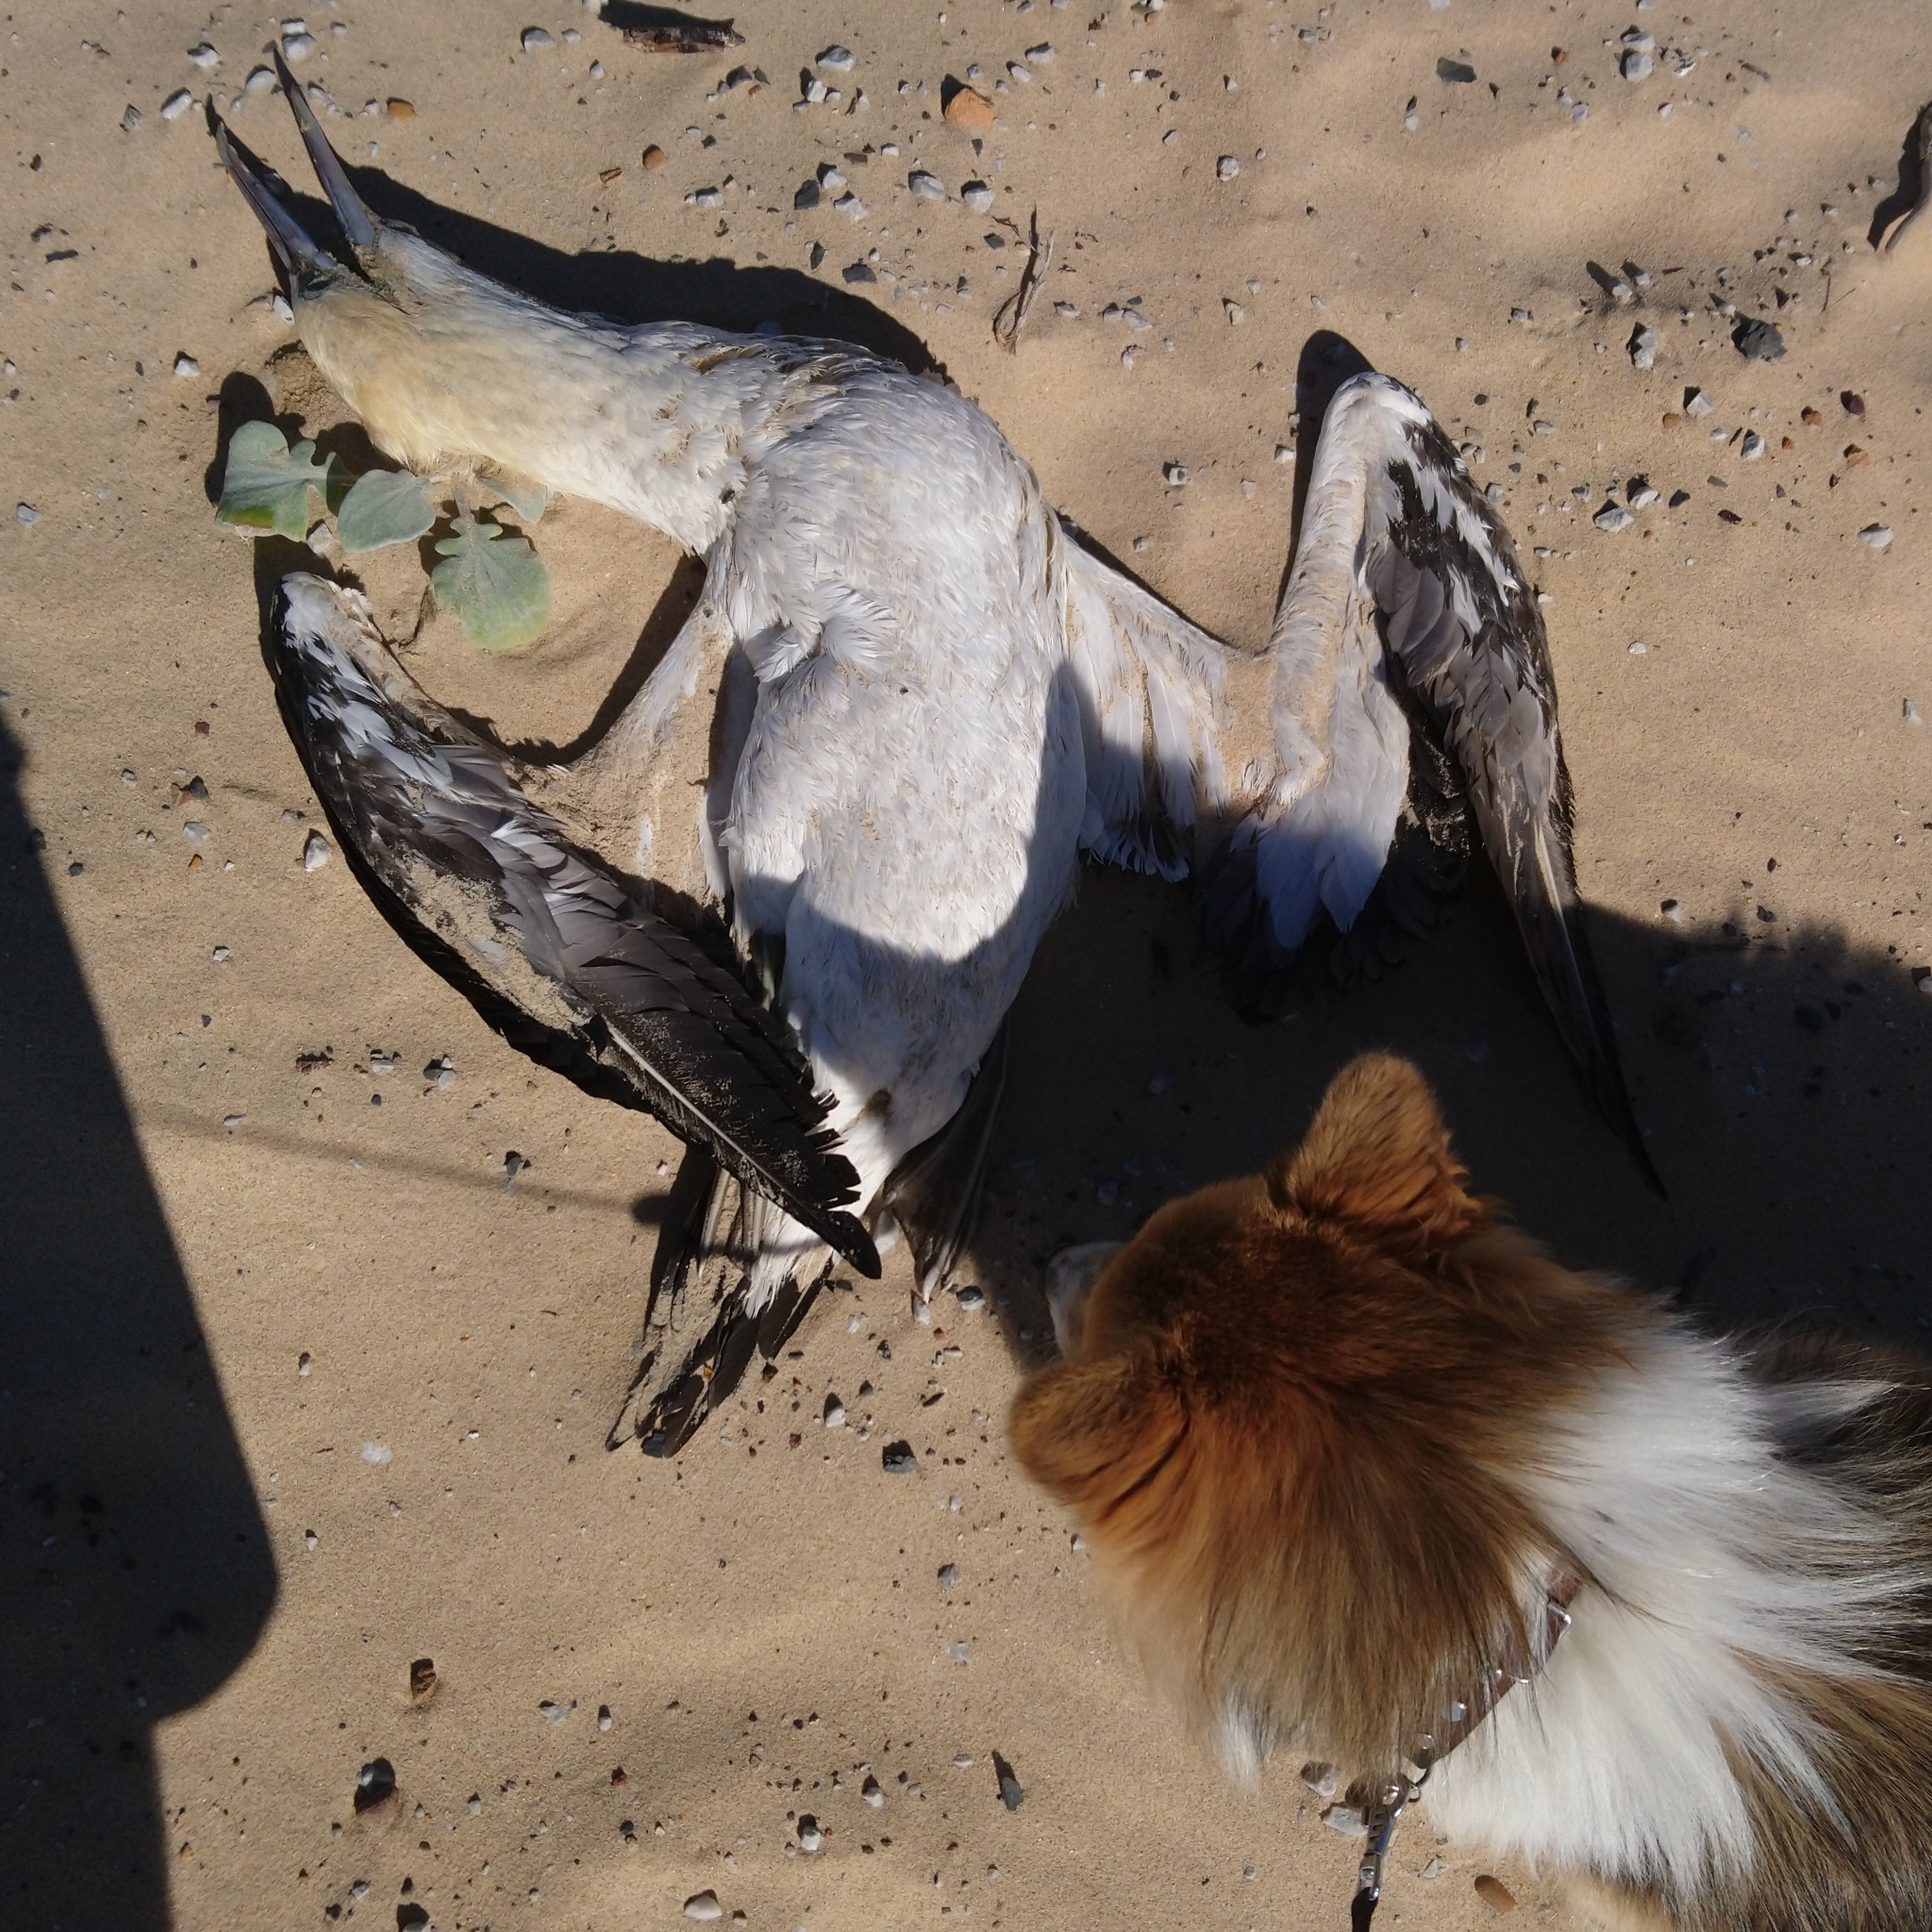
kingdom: Animalia
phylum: Chordata
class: Aves
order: Suliformes
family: Sulidae
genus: Morus
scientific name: Morus capensis
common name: Cape gannet
